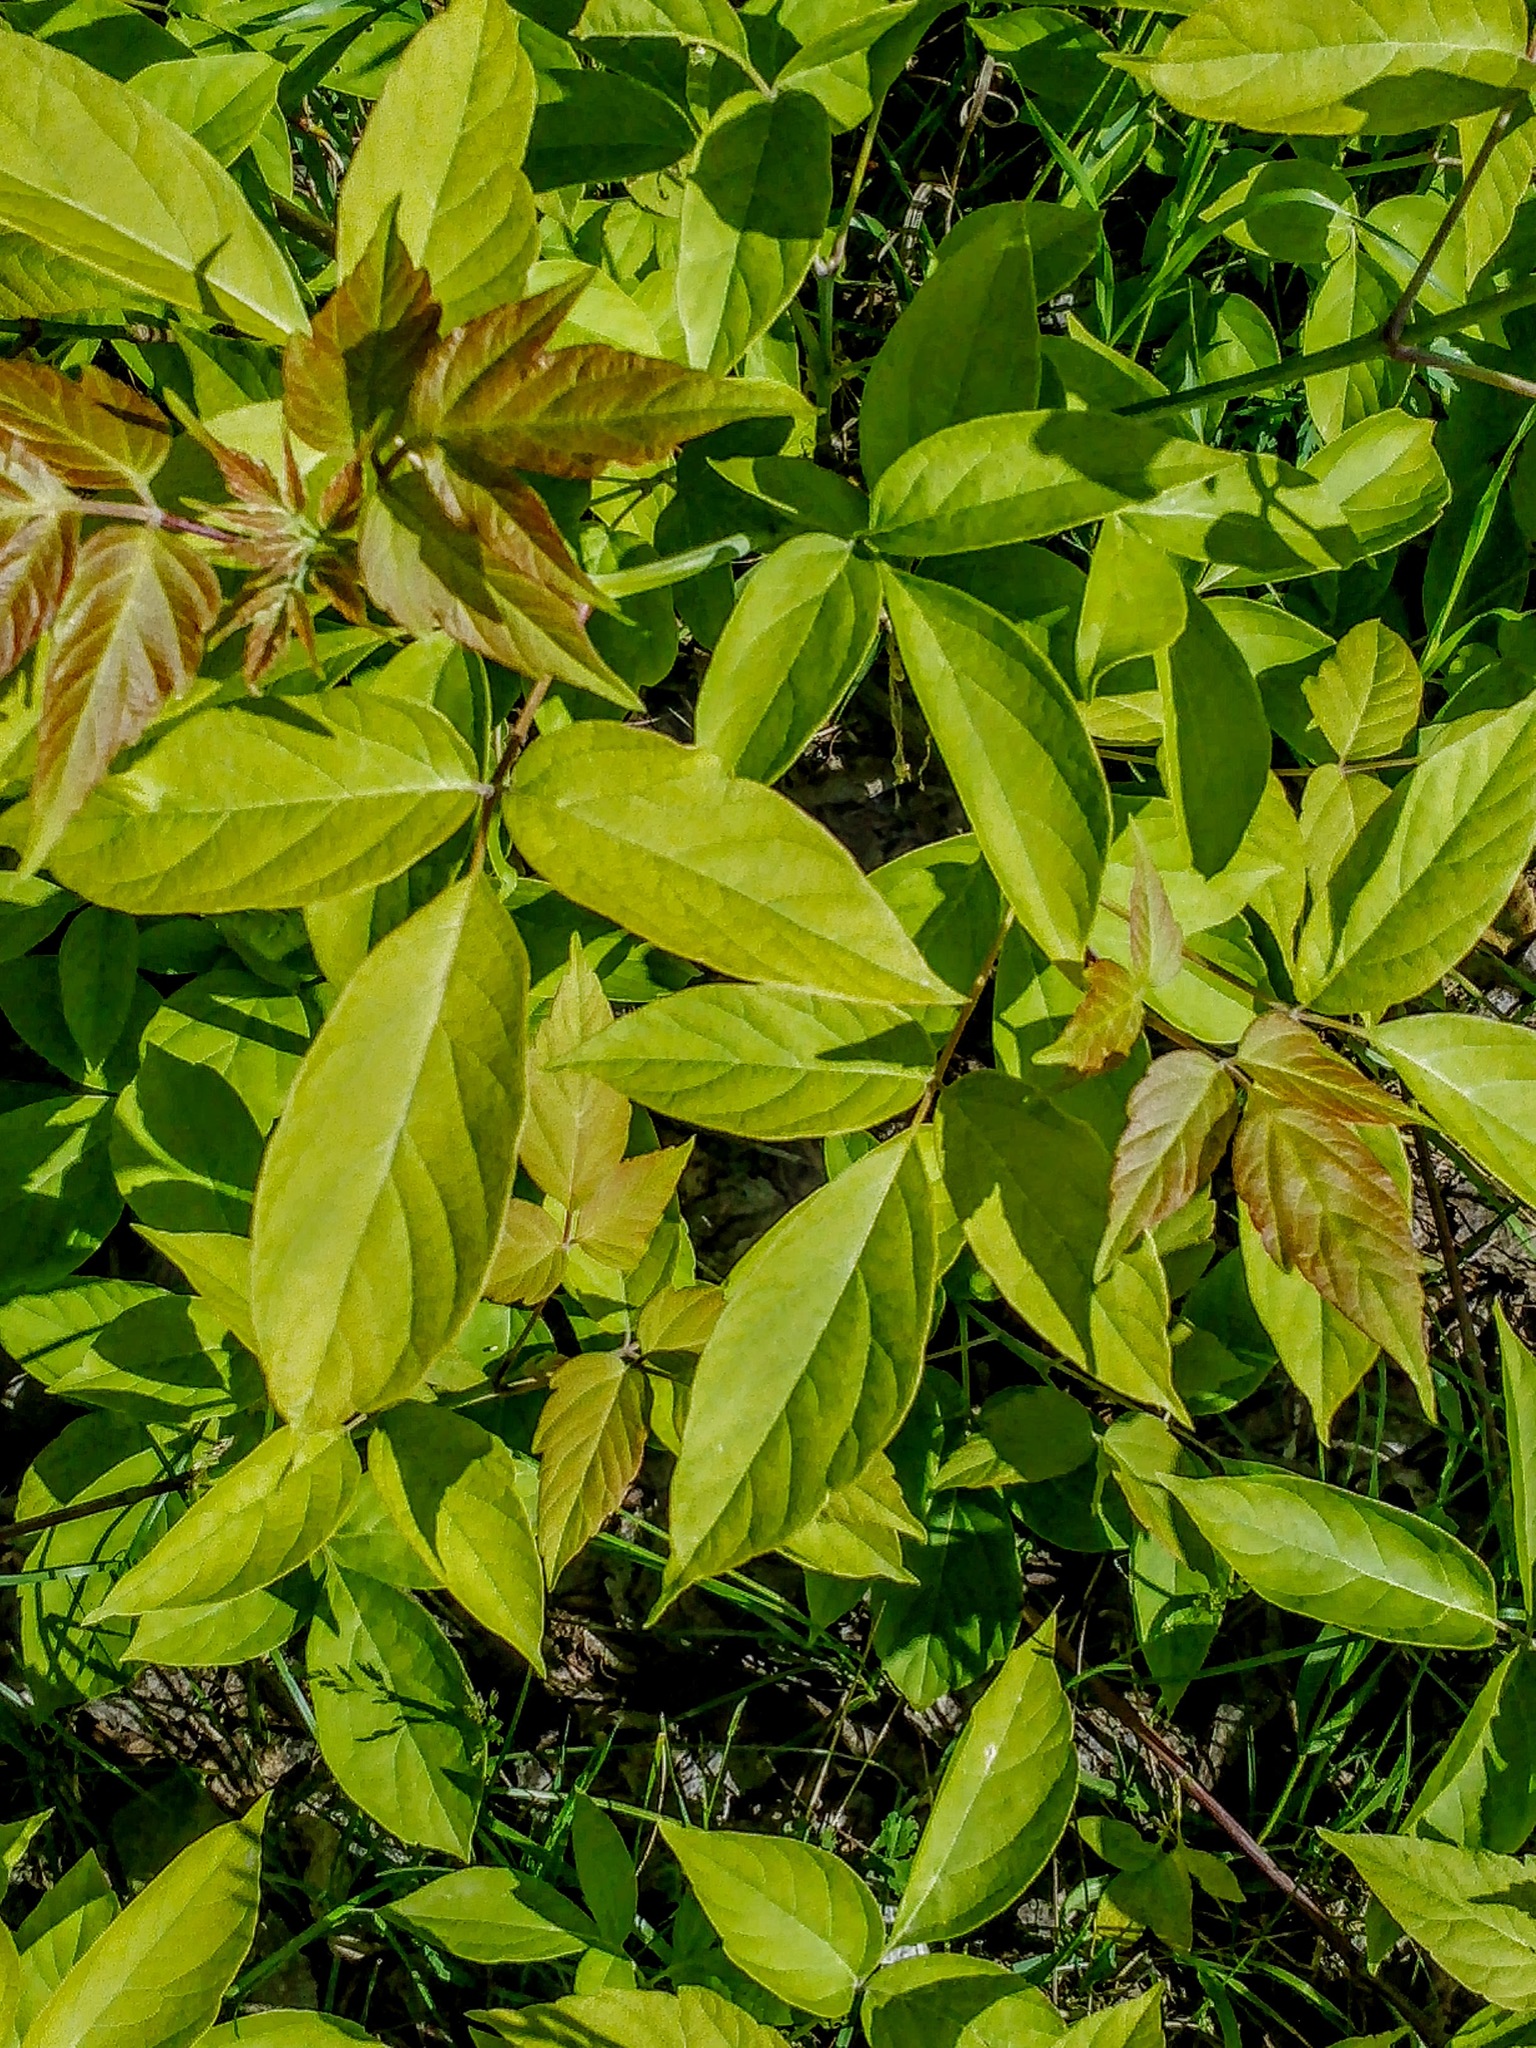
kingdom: Plantae
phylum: Tracheophyta
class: Magnoliopsida
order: Sapindales
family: Sapindaceae
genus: Acer
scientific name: Acer negundo
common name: Ashleaf maple
